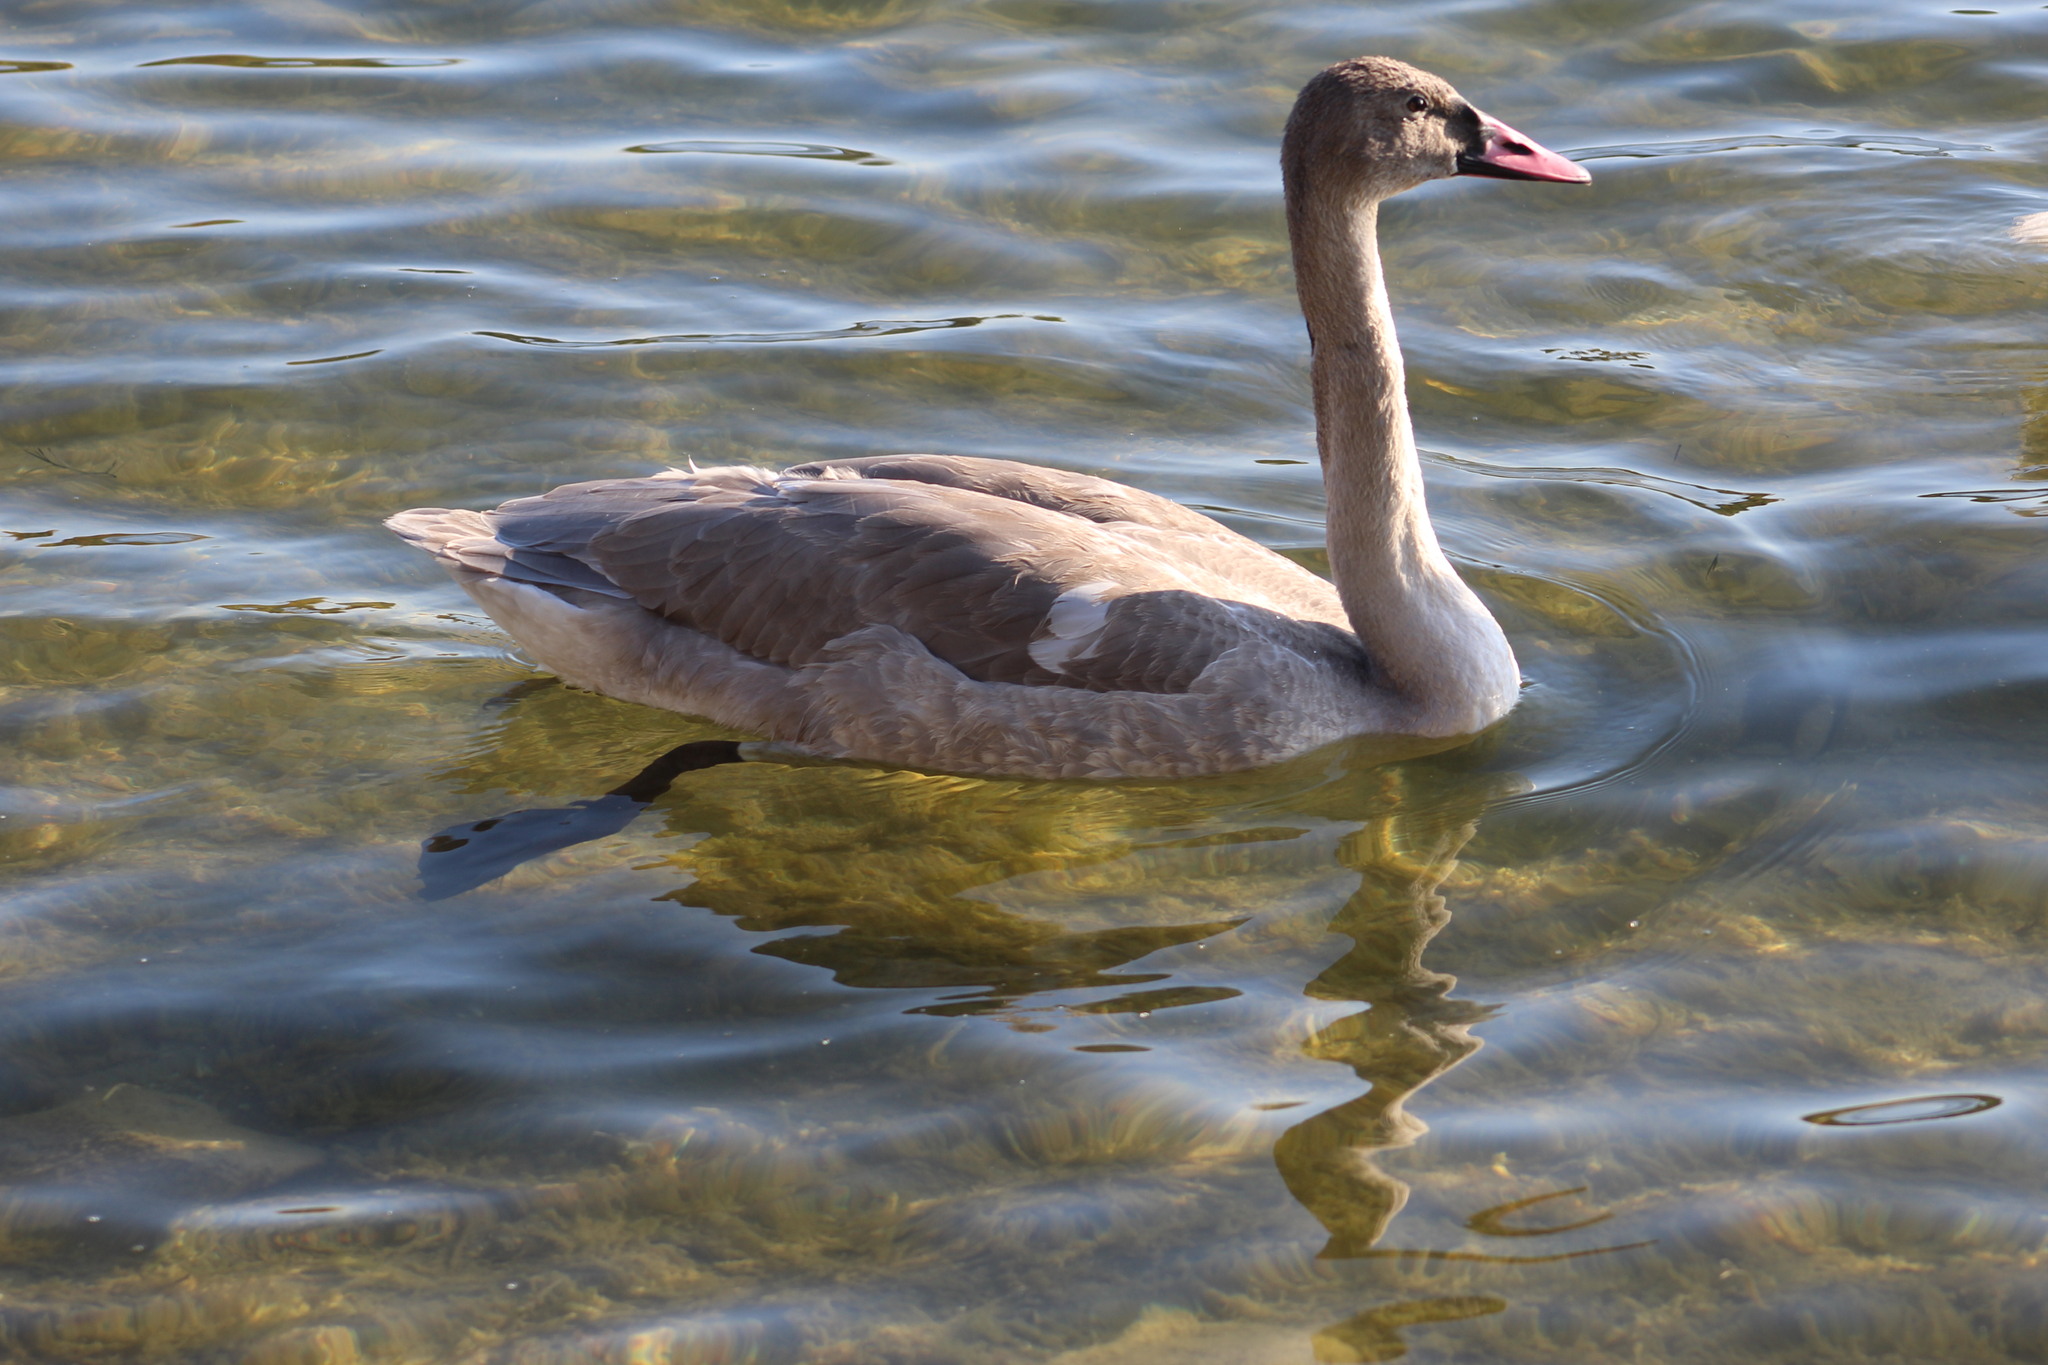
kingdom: Animalia
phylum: Chordata
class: Aves
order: Anseriformes
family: Anatidae
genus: Cygnus
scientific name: Cygnus buccinator
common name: Trumpeter swan
